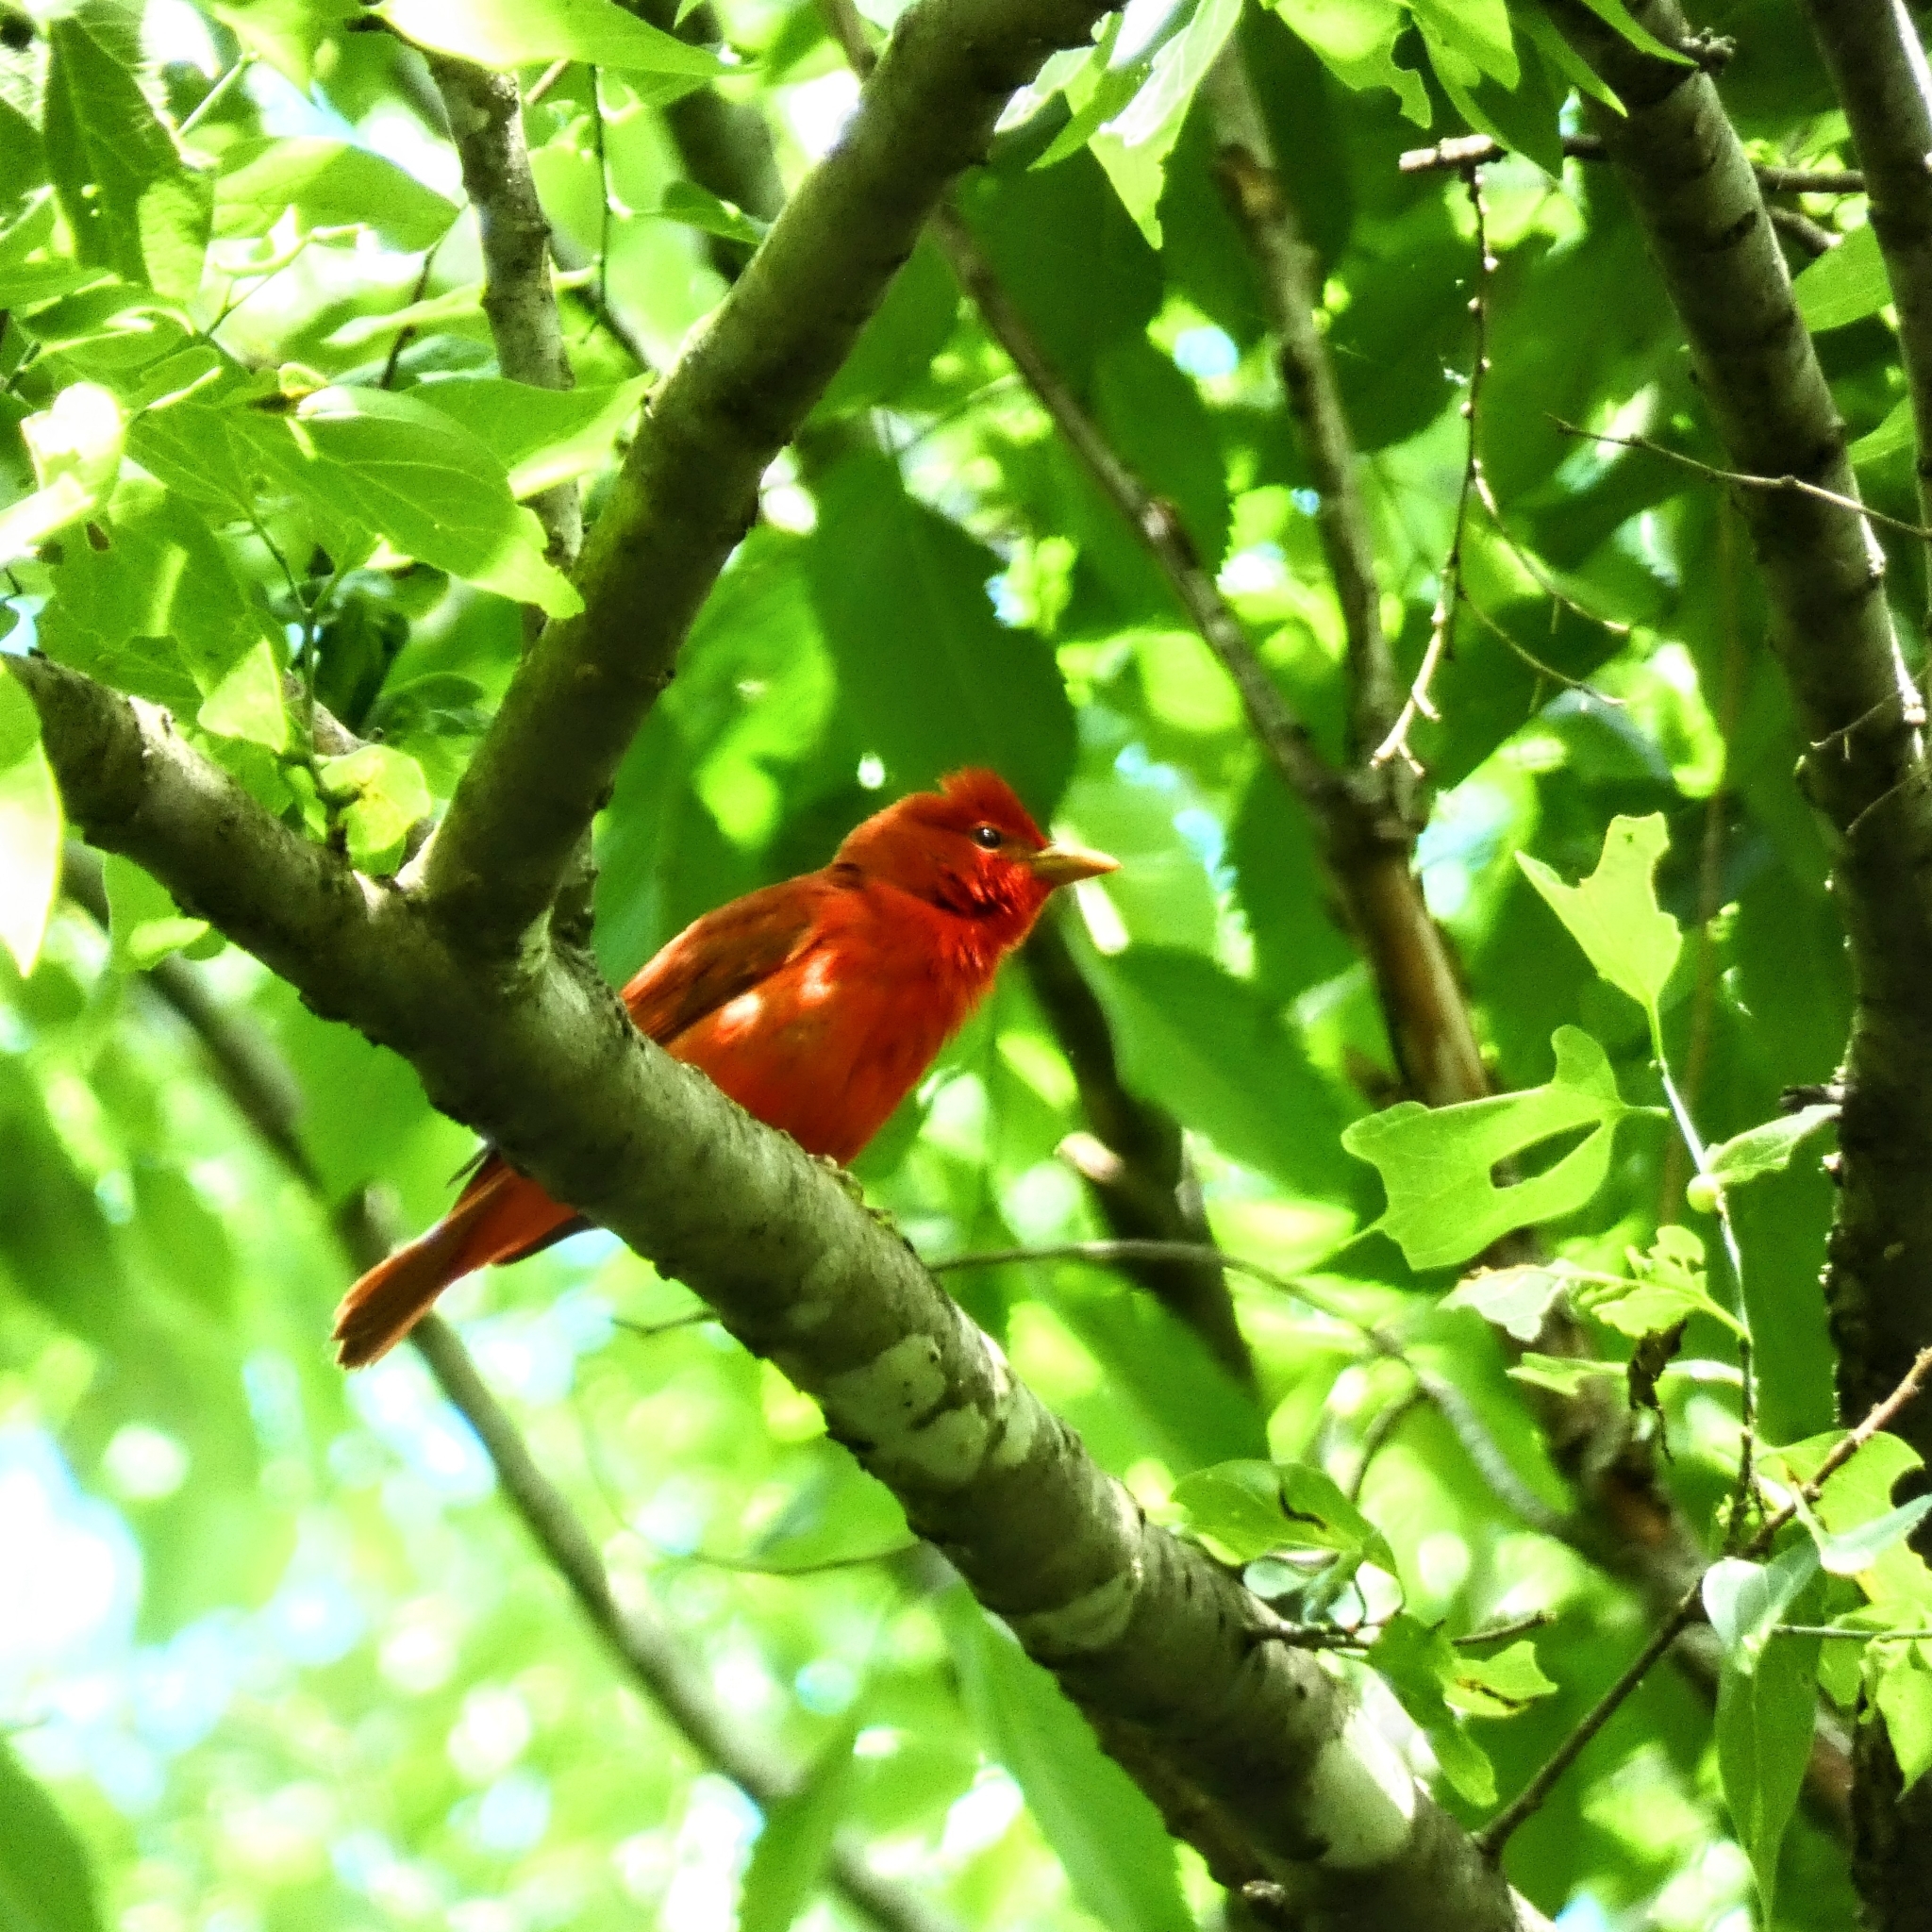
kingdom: Animalia
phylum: Chordata
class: Aves
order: Passeriformes
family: Cardinalidae
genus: Piranga
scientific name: Piranga rubra
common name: Summer tanager
